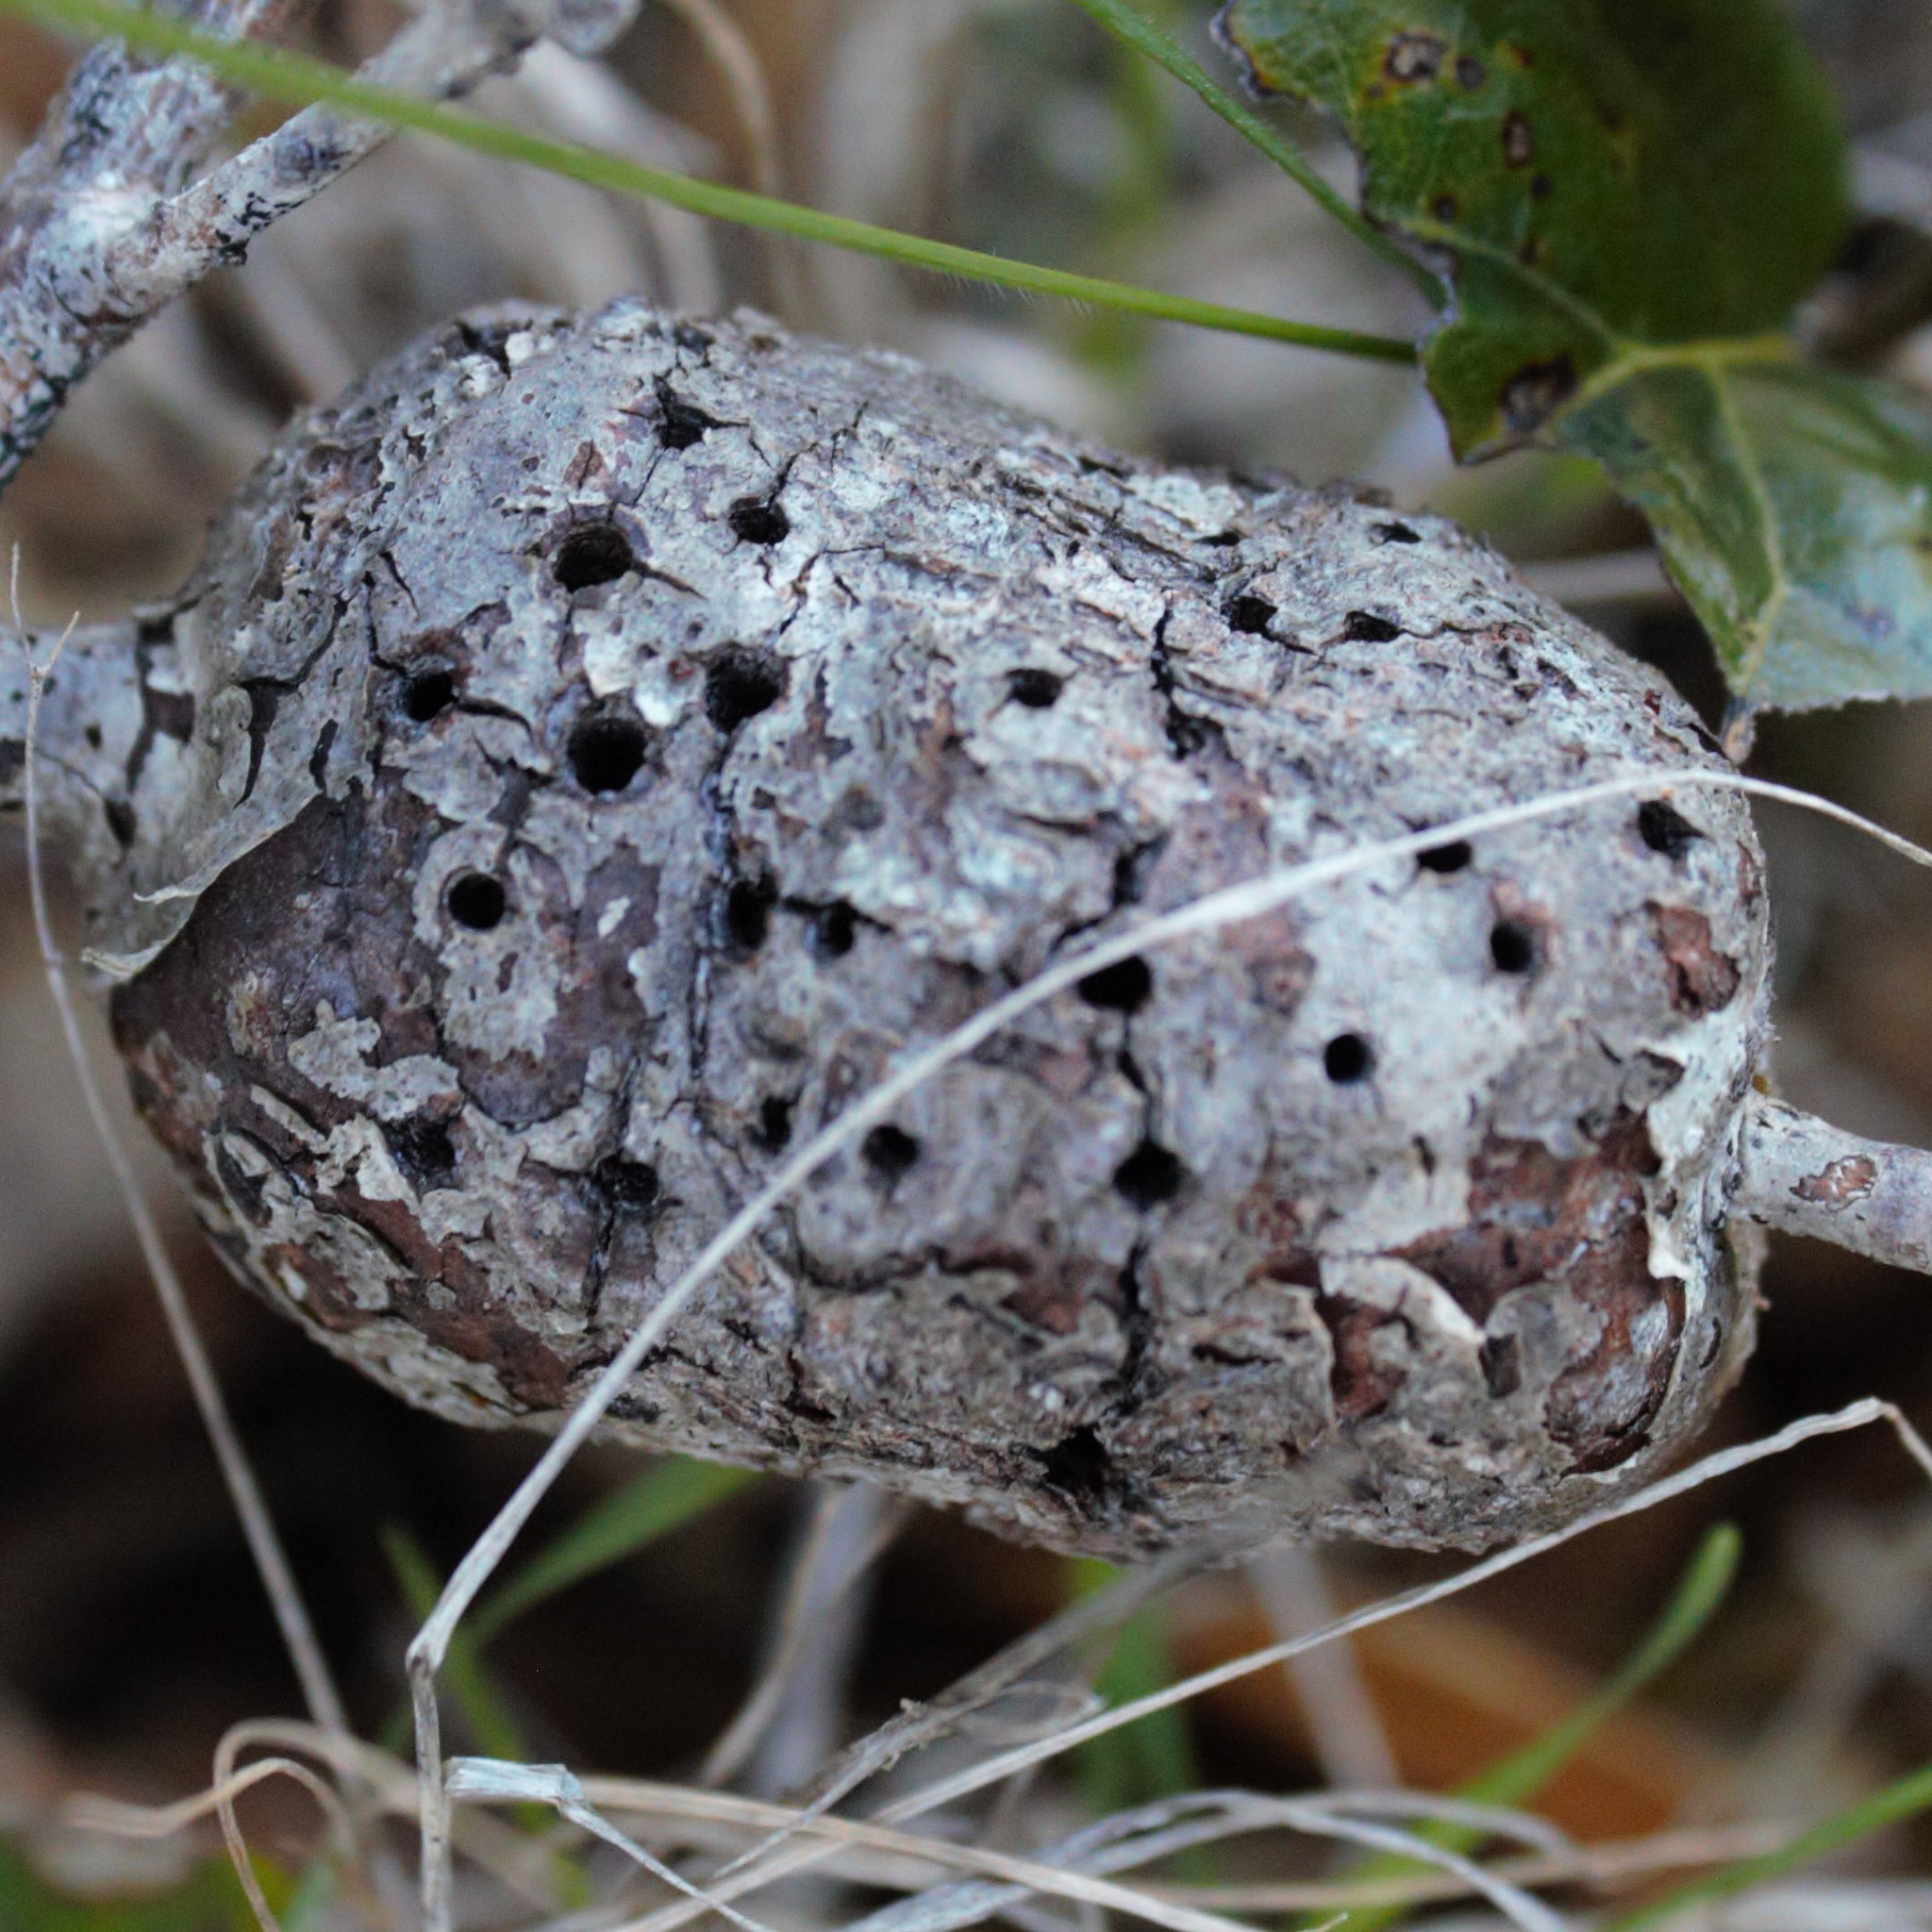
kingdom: Animalia
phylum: Arthropoda
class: Insecta
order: Hymenoptera
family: Cynipidae
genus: Callirhytis
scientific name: Callirhytis
